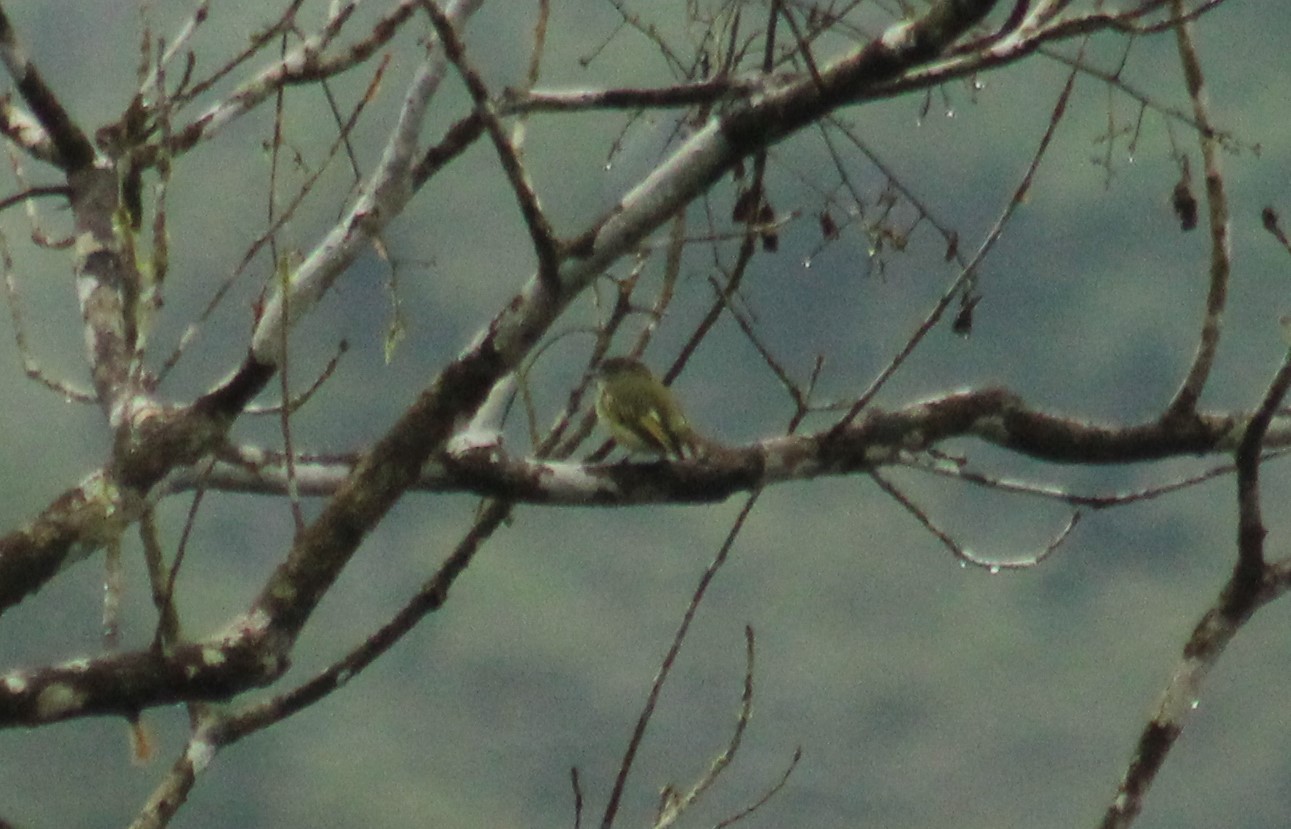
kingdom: Animalia
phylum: Chordata
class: Aves
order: Passeriformes
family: Tyrannidae
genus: Myiornis
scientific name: Myiornis atricapillus
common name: Black-capped pygmy-tyrant
